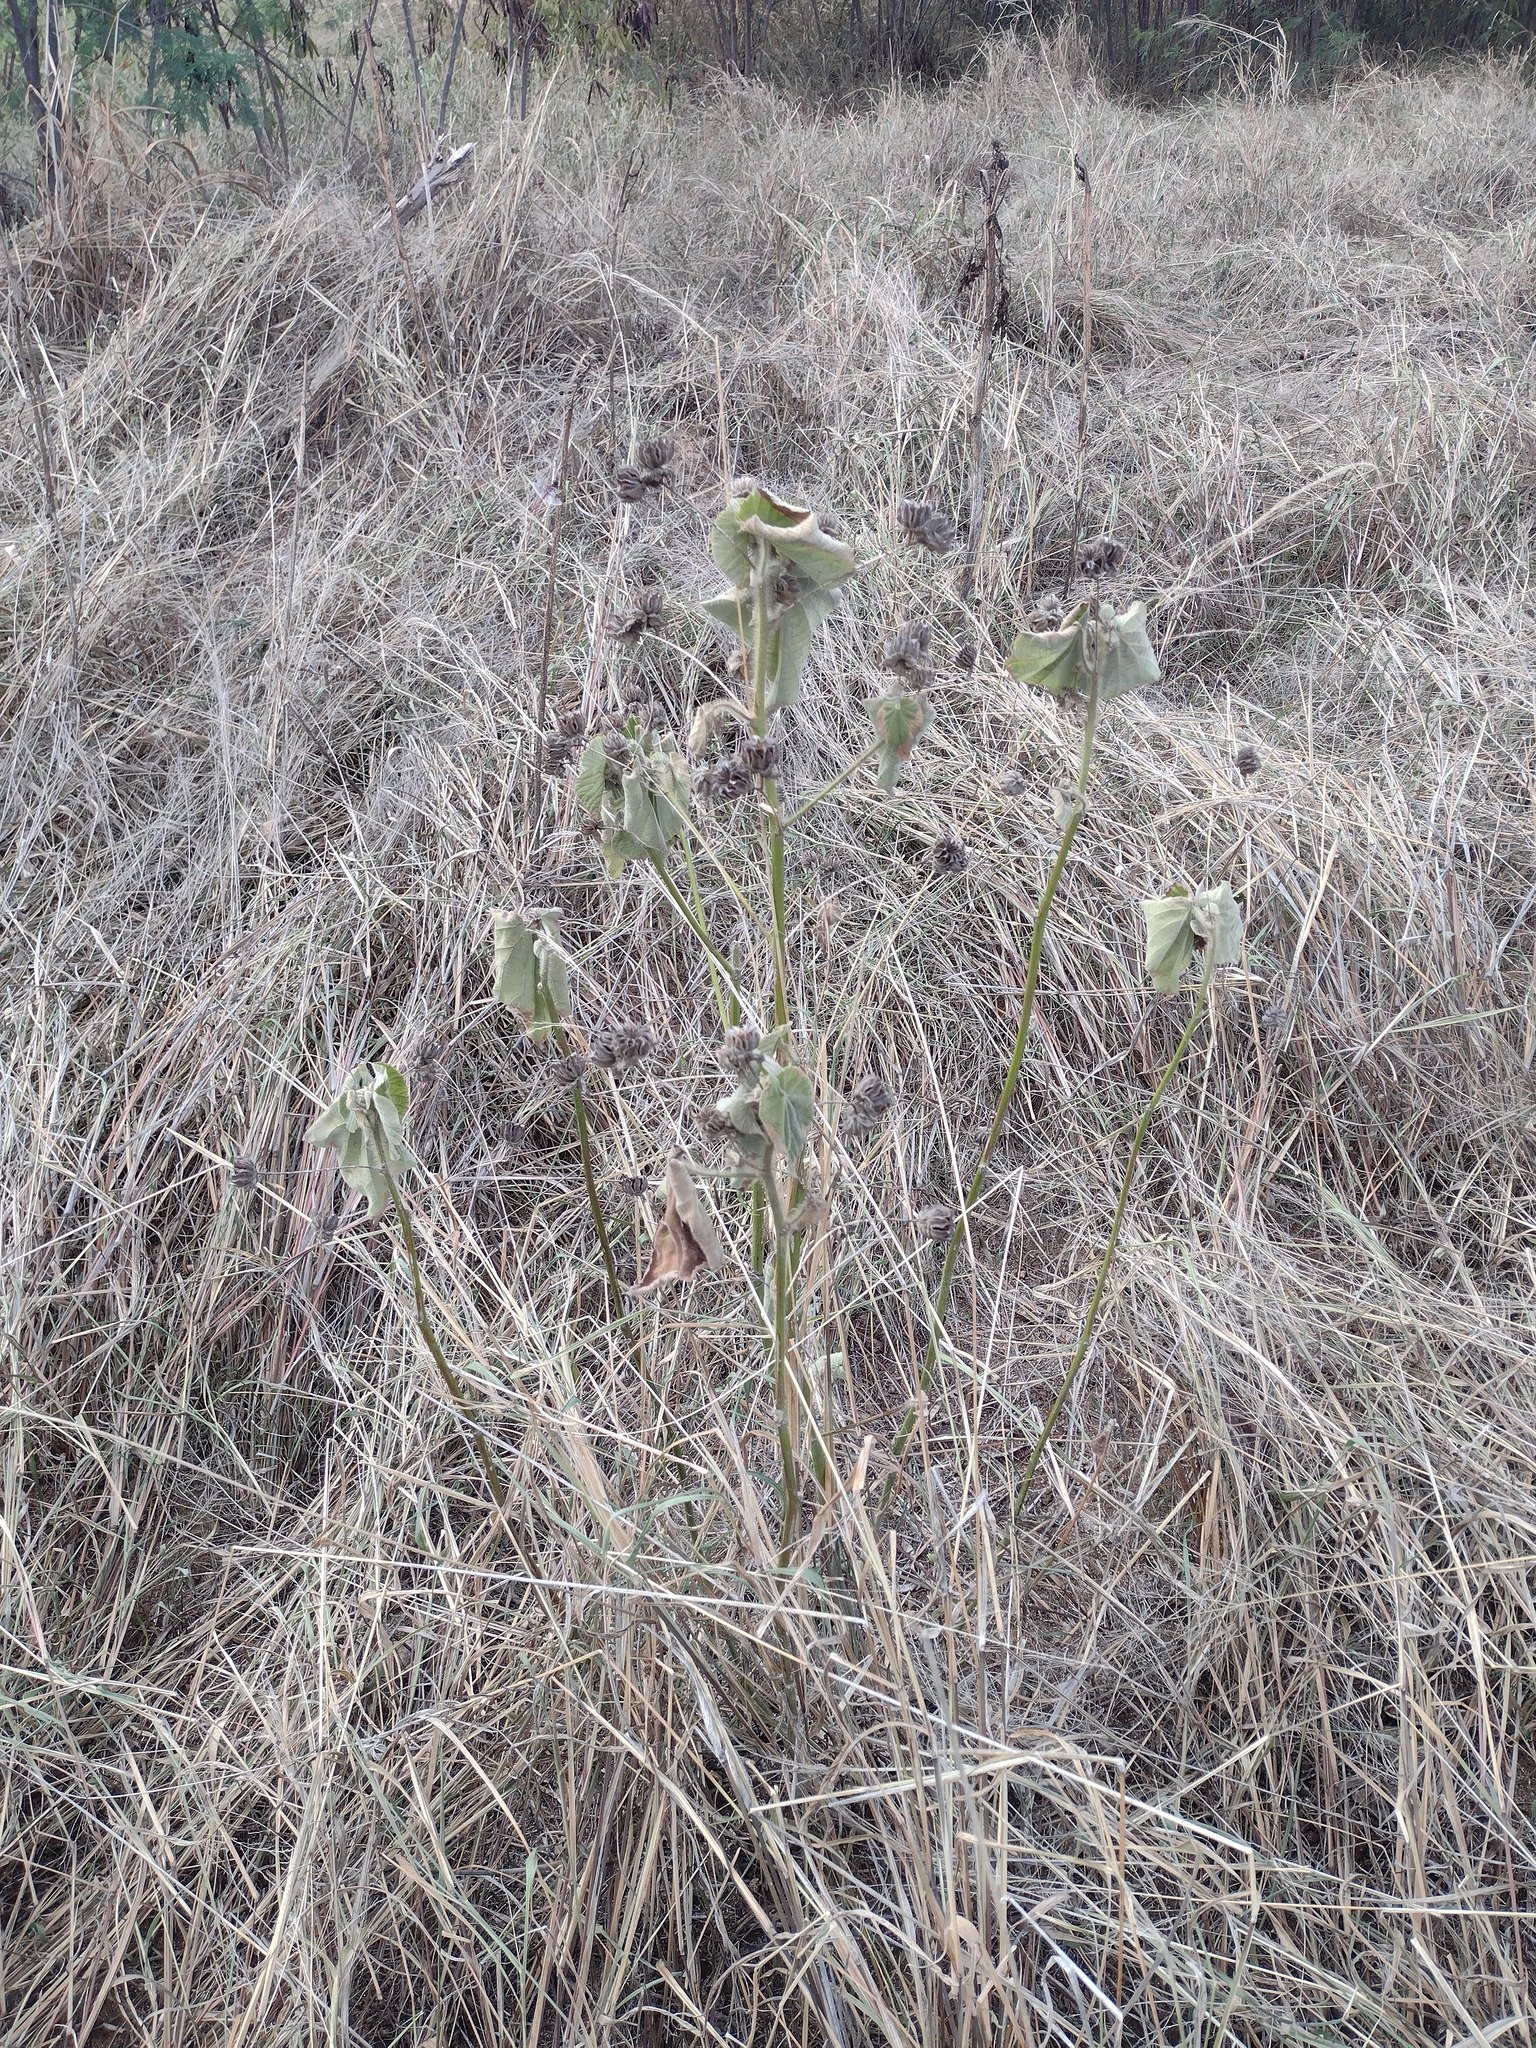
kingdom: Plantae
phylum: Tracheophyta
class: Magnoliopsida
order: Malvales
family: Malvaceae
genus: Abutilon
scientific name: Abutilon grandifolium
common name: Hairy abutilon
